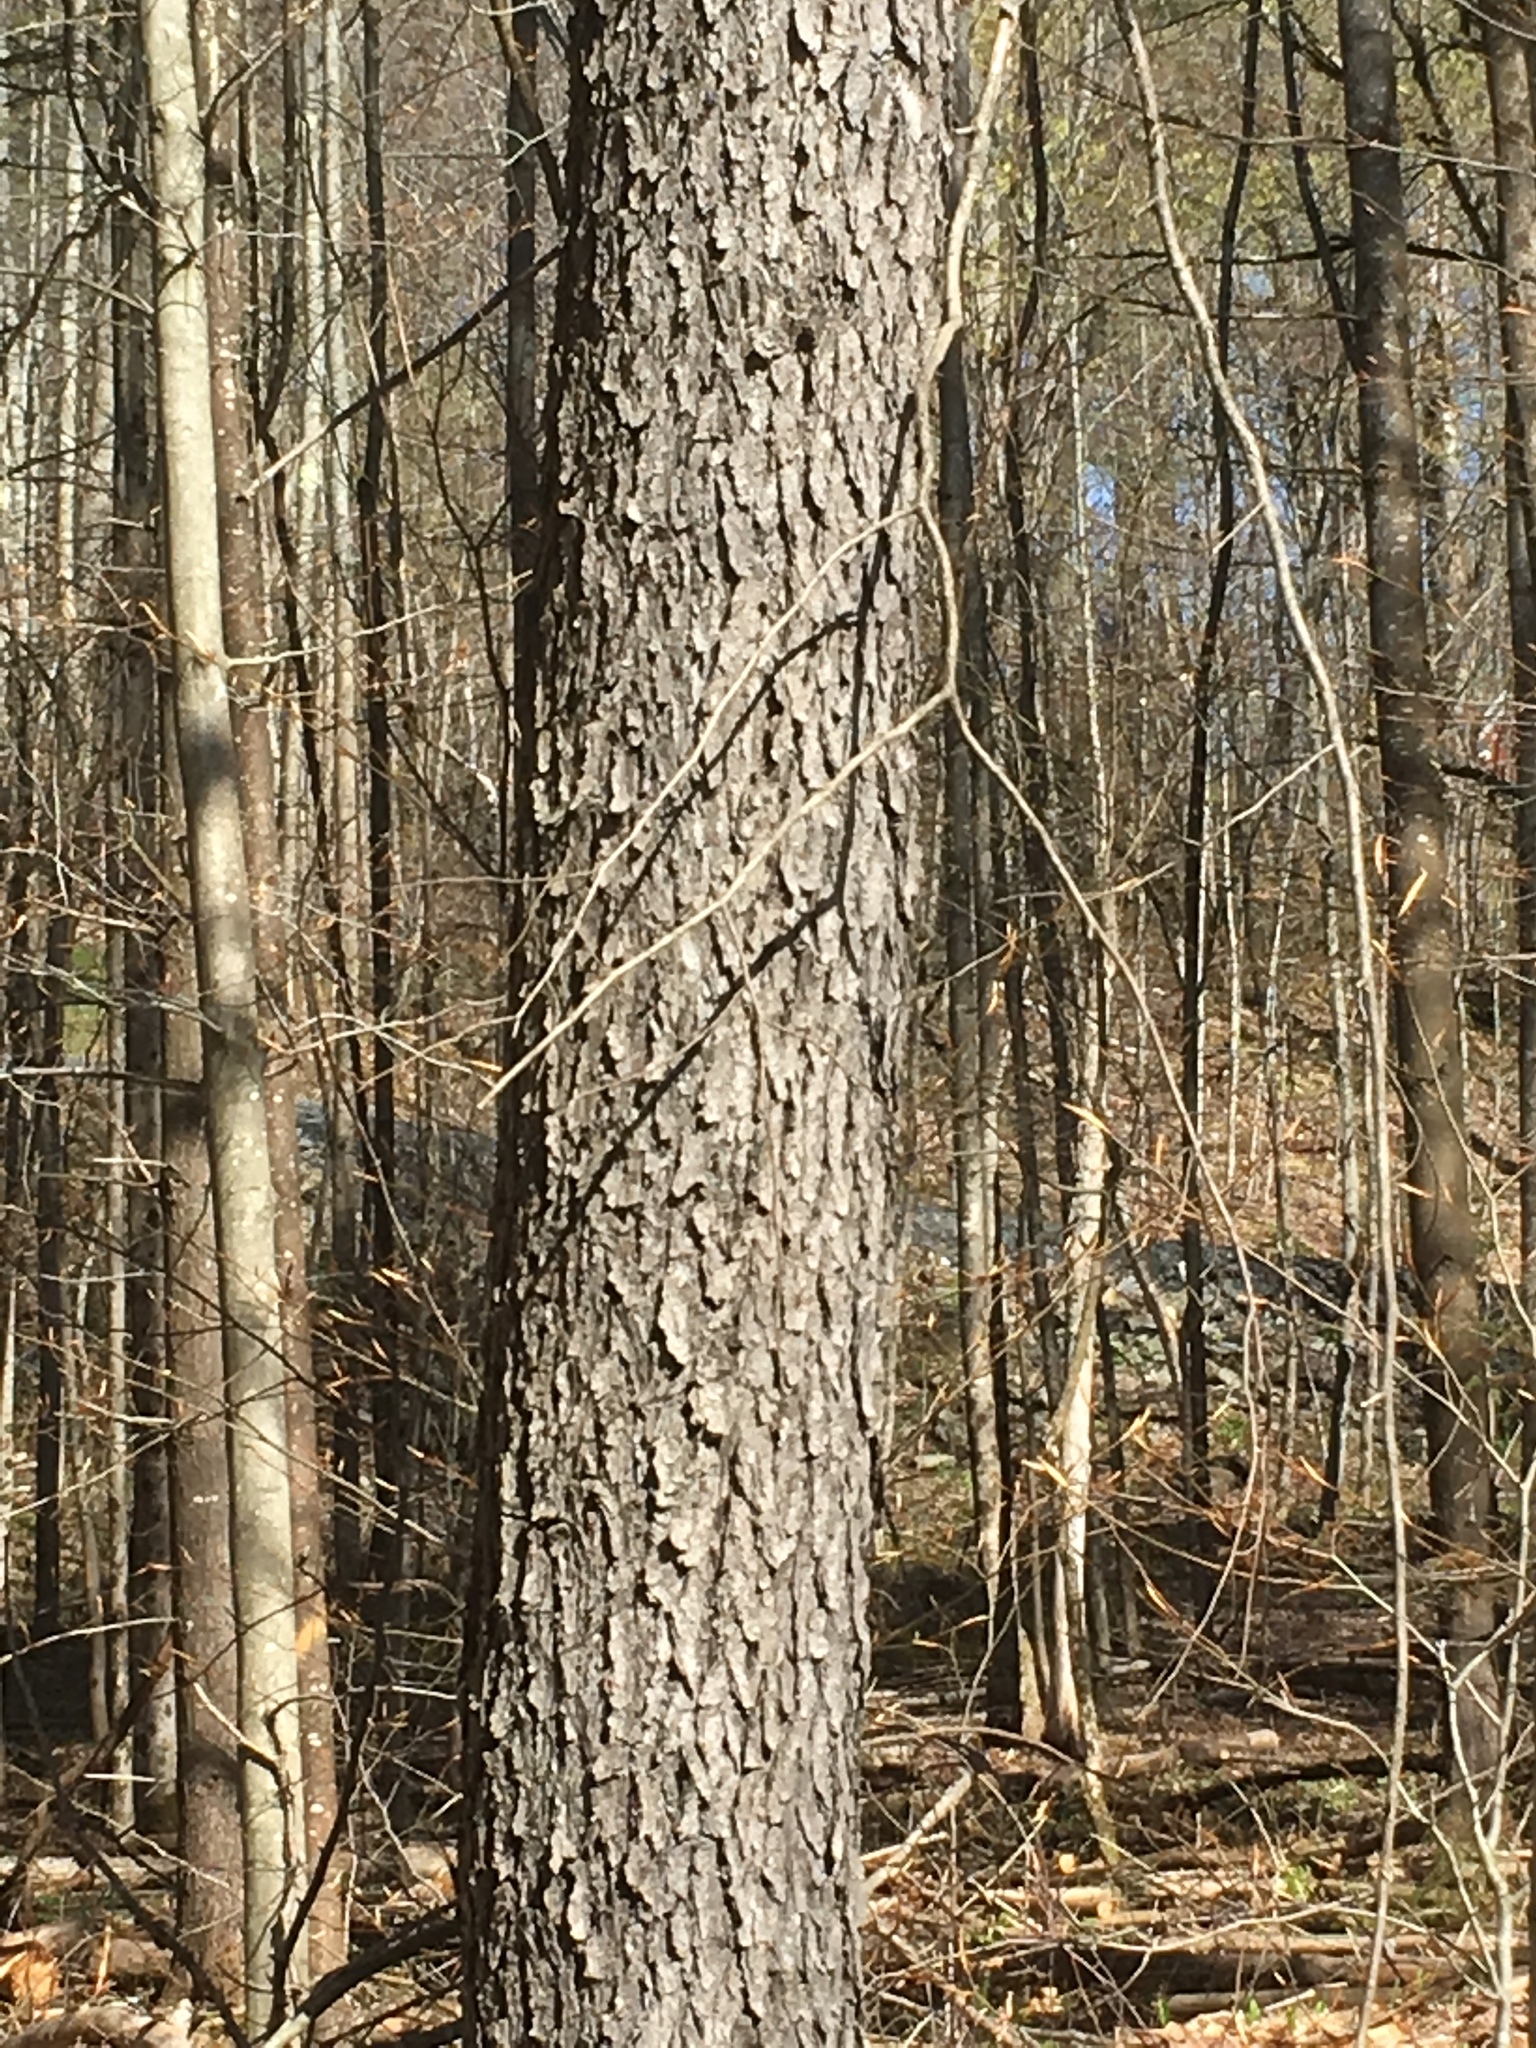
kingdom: Plantae
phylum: Tracheophyta
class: Magnoliopsida
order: Rosales
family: Rosaceae
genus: Prunus
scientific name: Prunus serotina
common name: Black cherry
